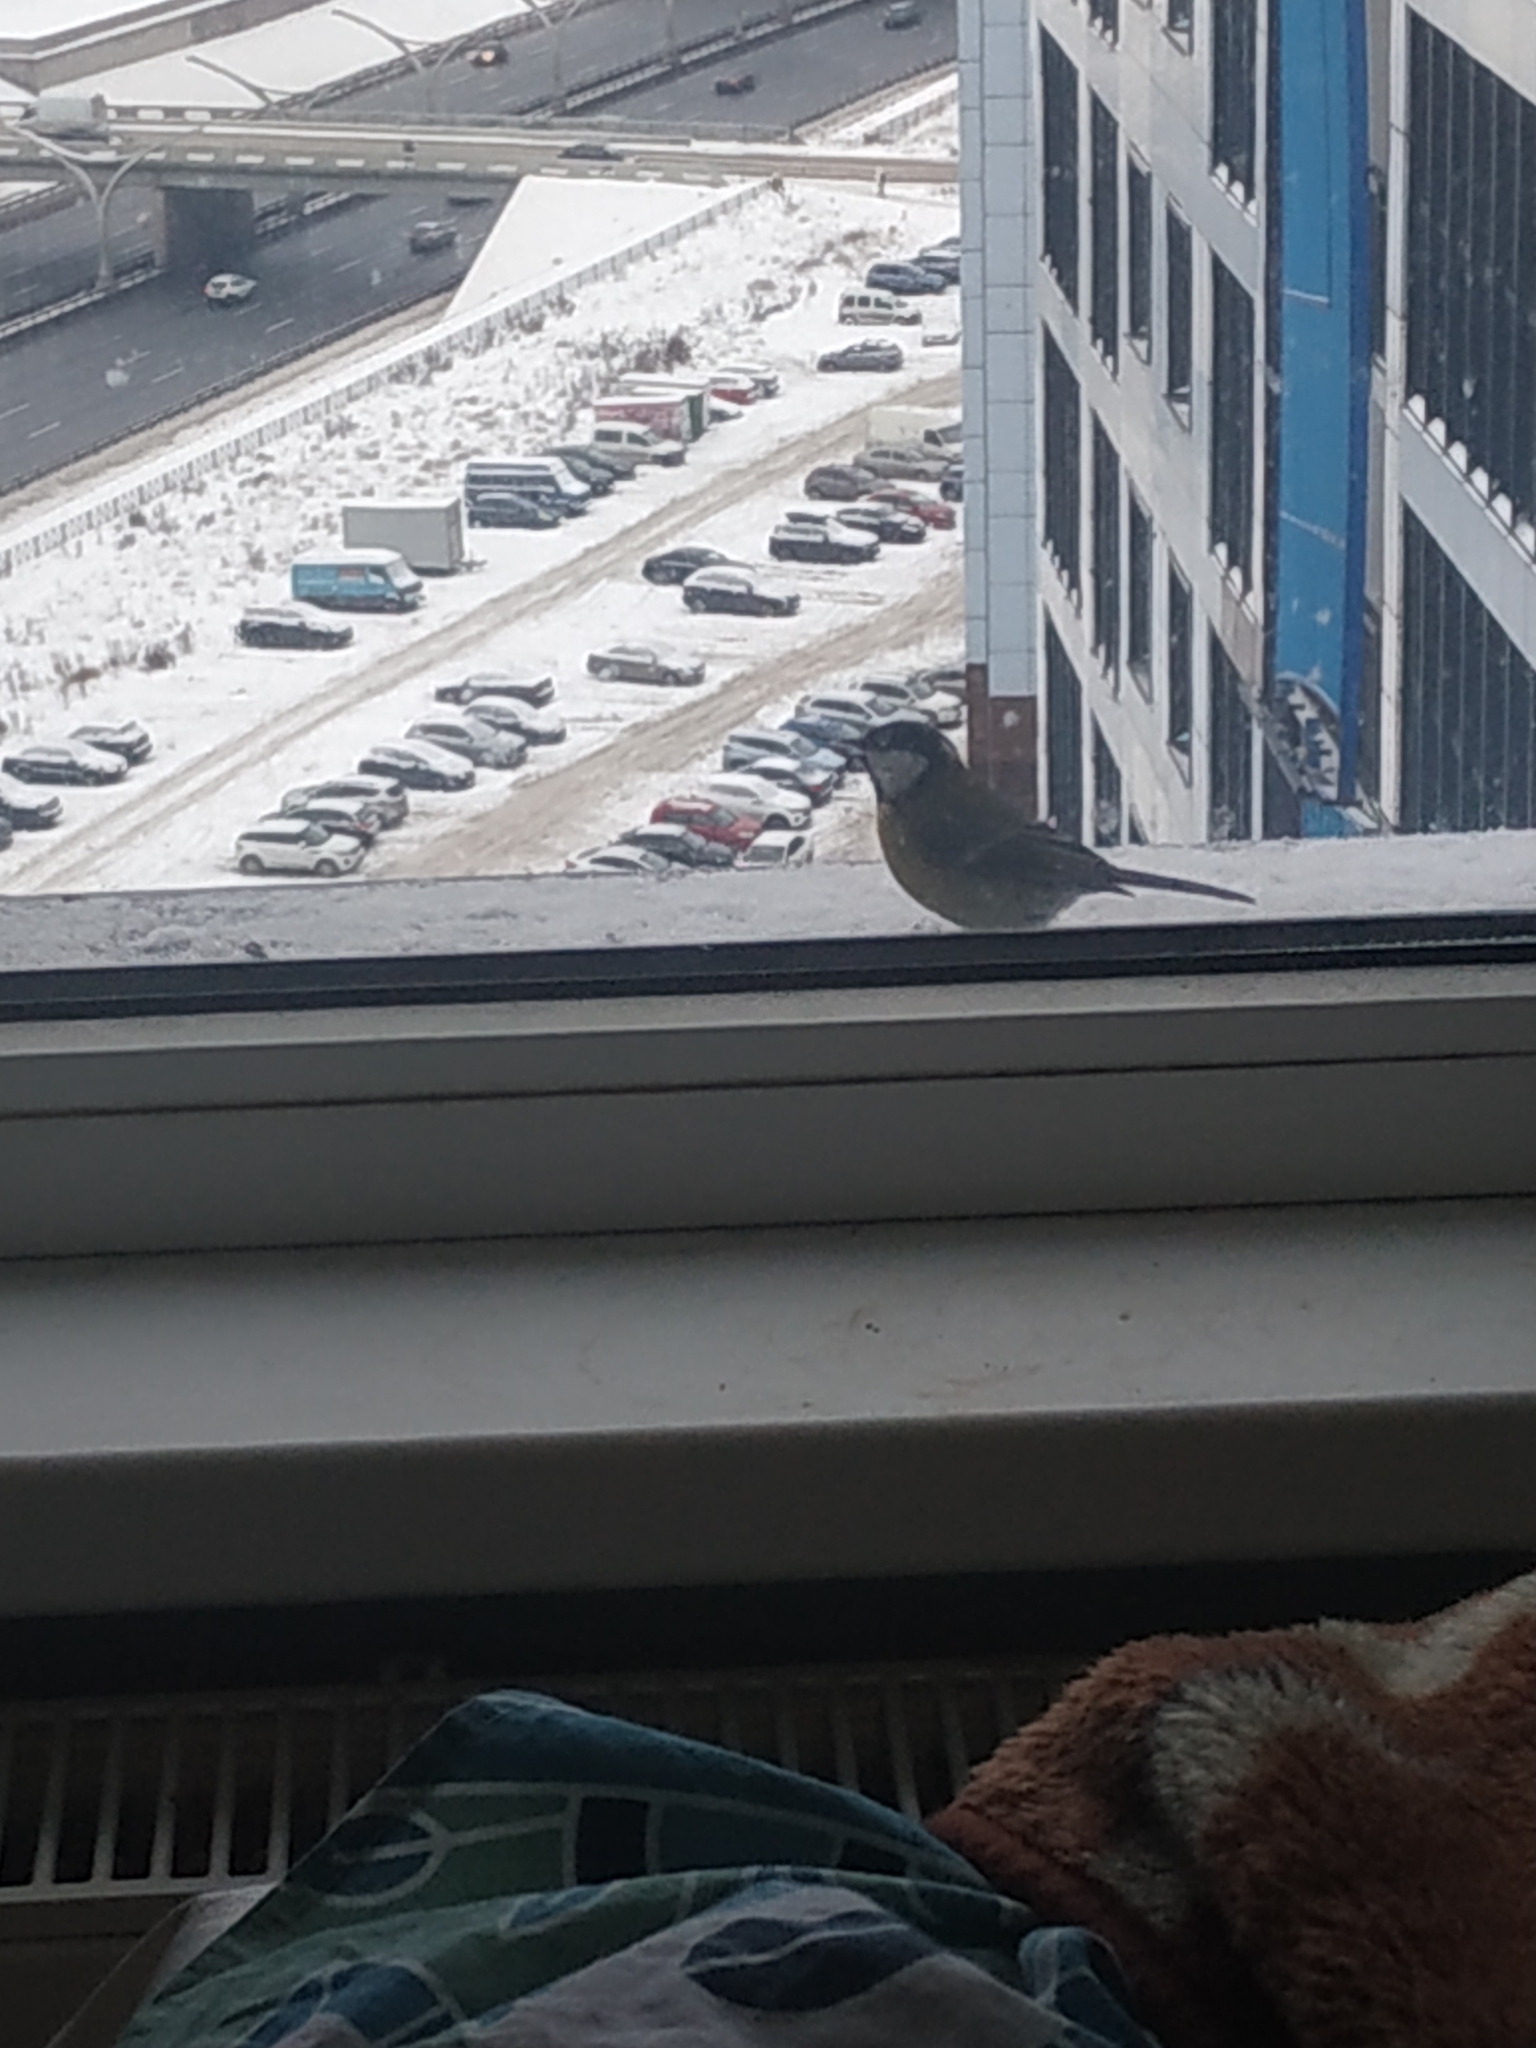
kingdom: Animalia
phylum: Chordata
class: Aves
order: Passeriformes
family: Paridae
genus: Parus
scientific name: Parus major
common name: Great tit
